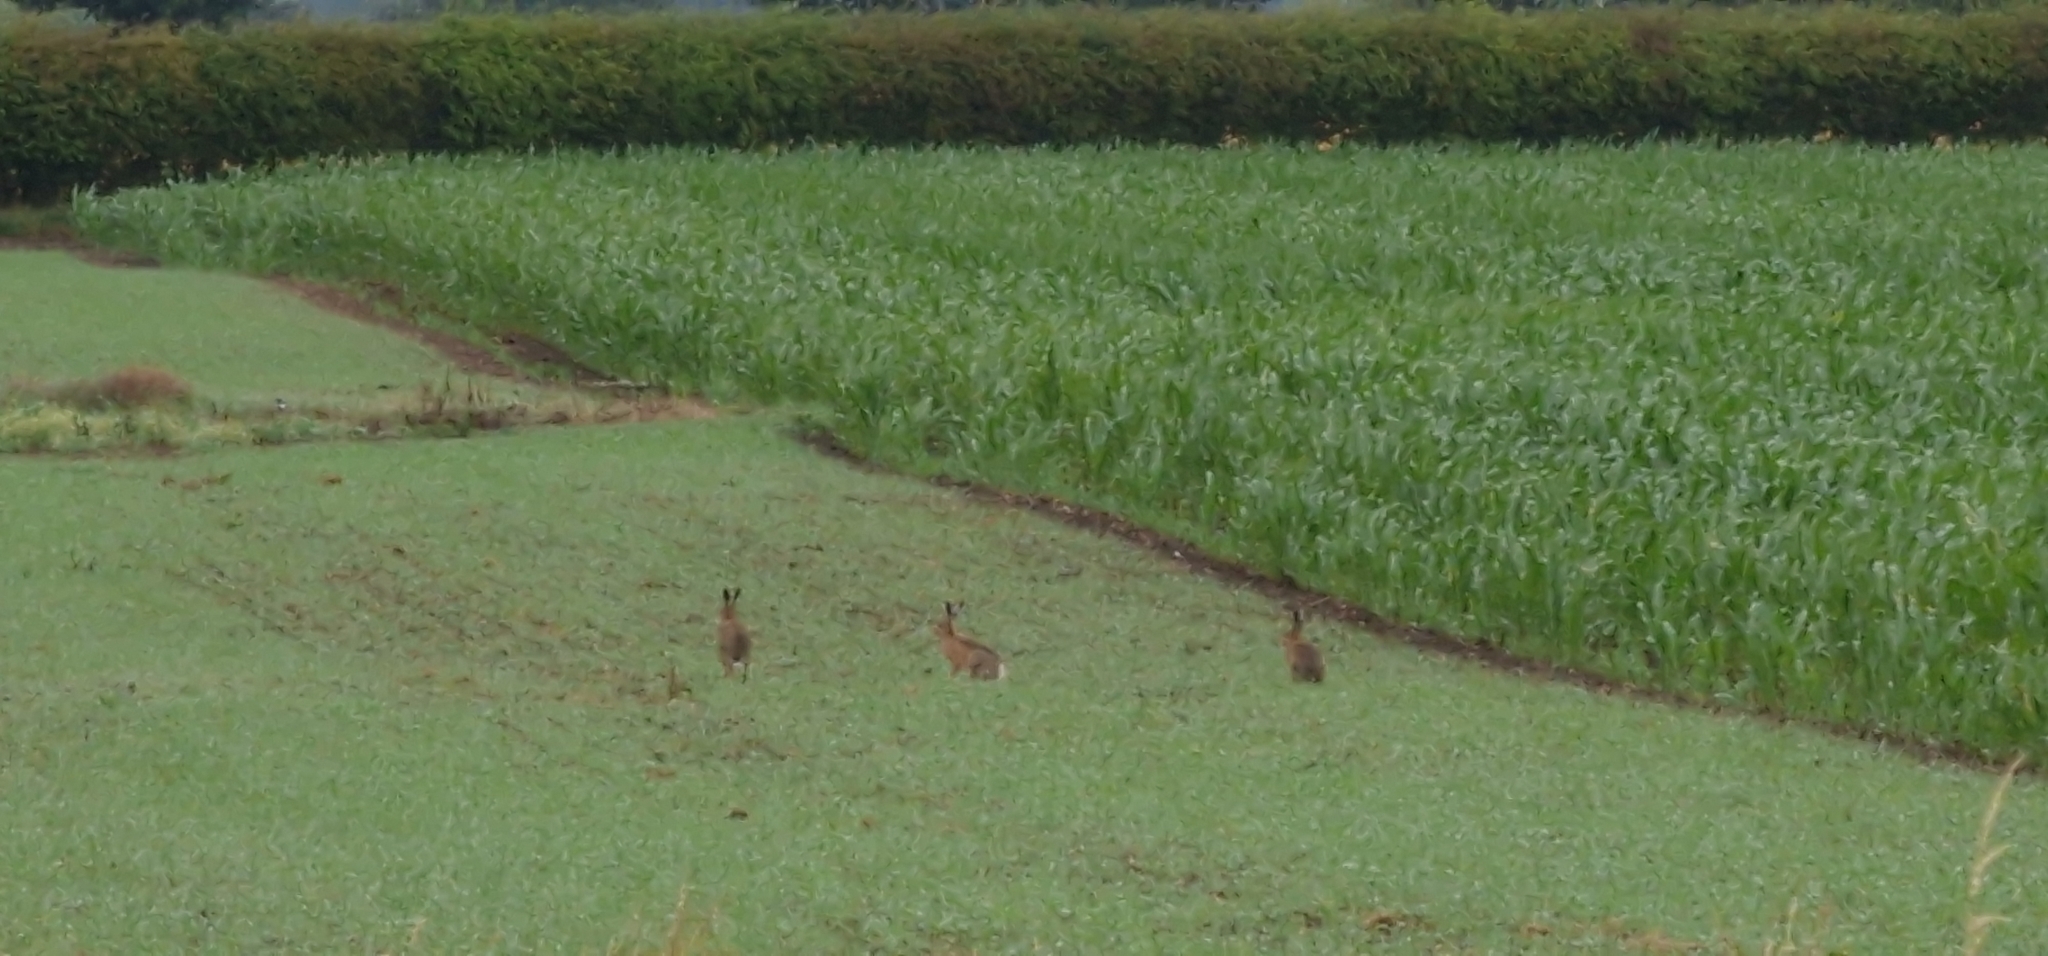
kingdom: Animalia
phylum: Chordata
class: Mammalia
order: Lagomorpha
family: Leporidae
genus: Lepus
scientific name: Lepus europaeus
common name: European hare
